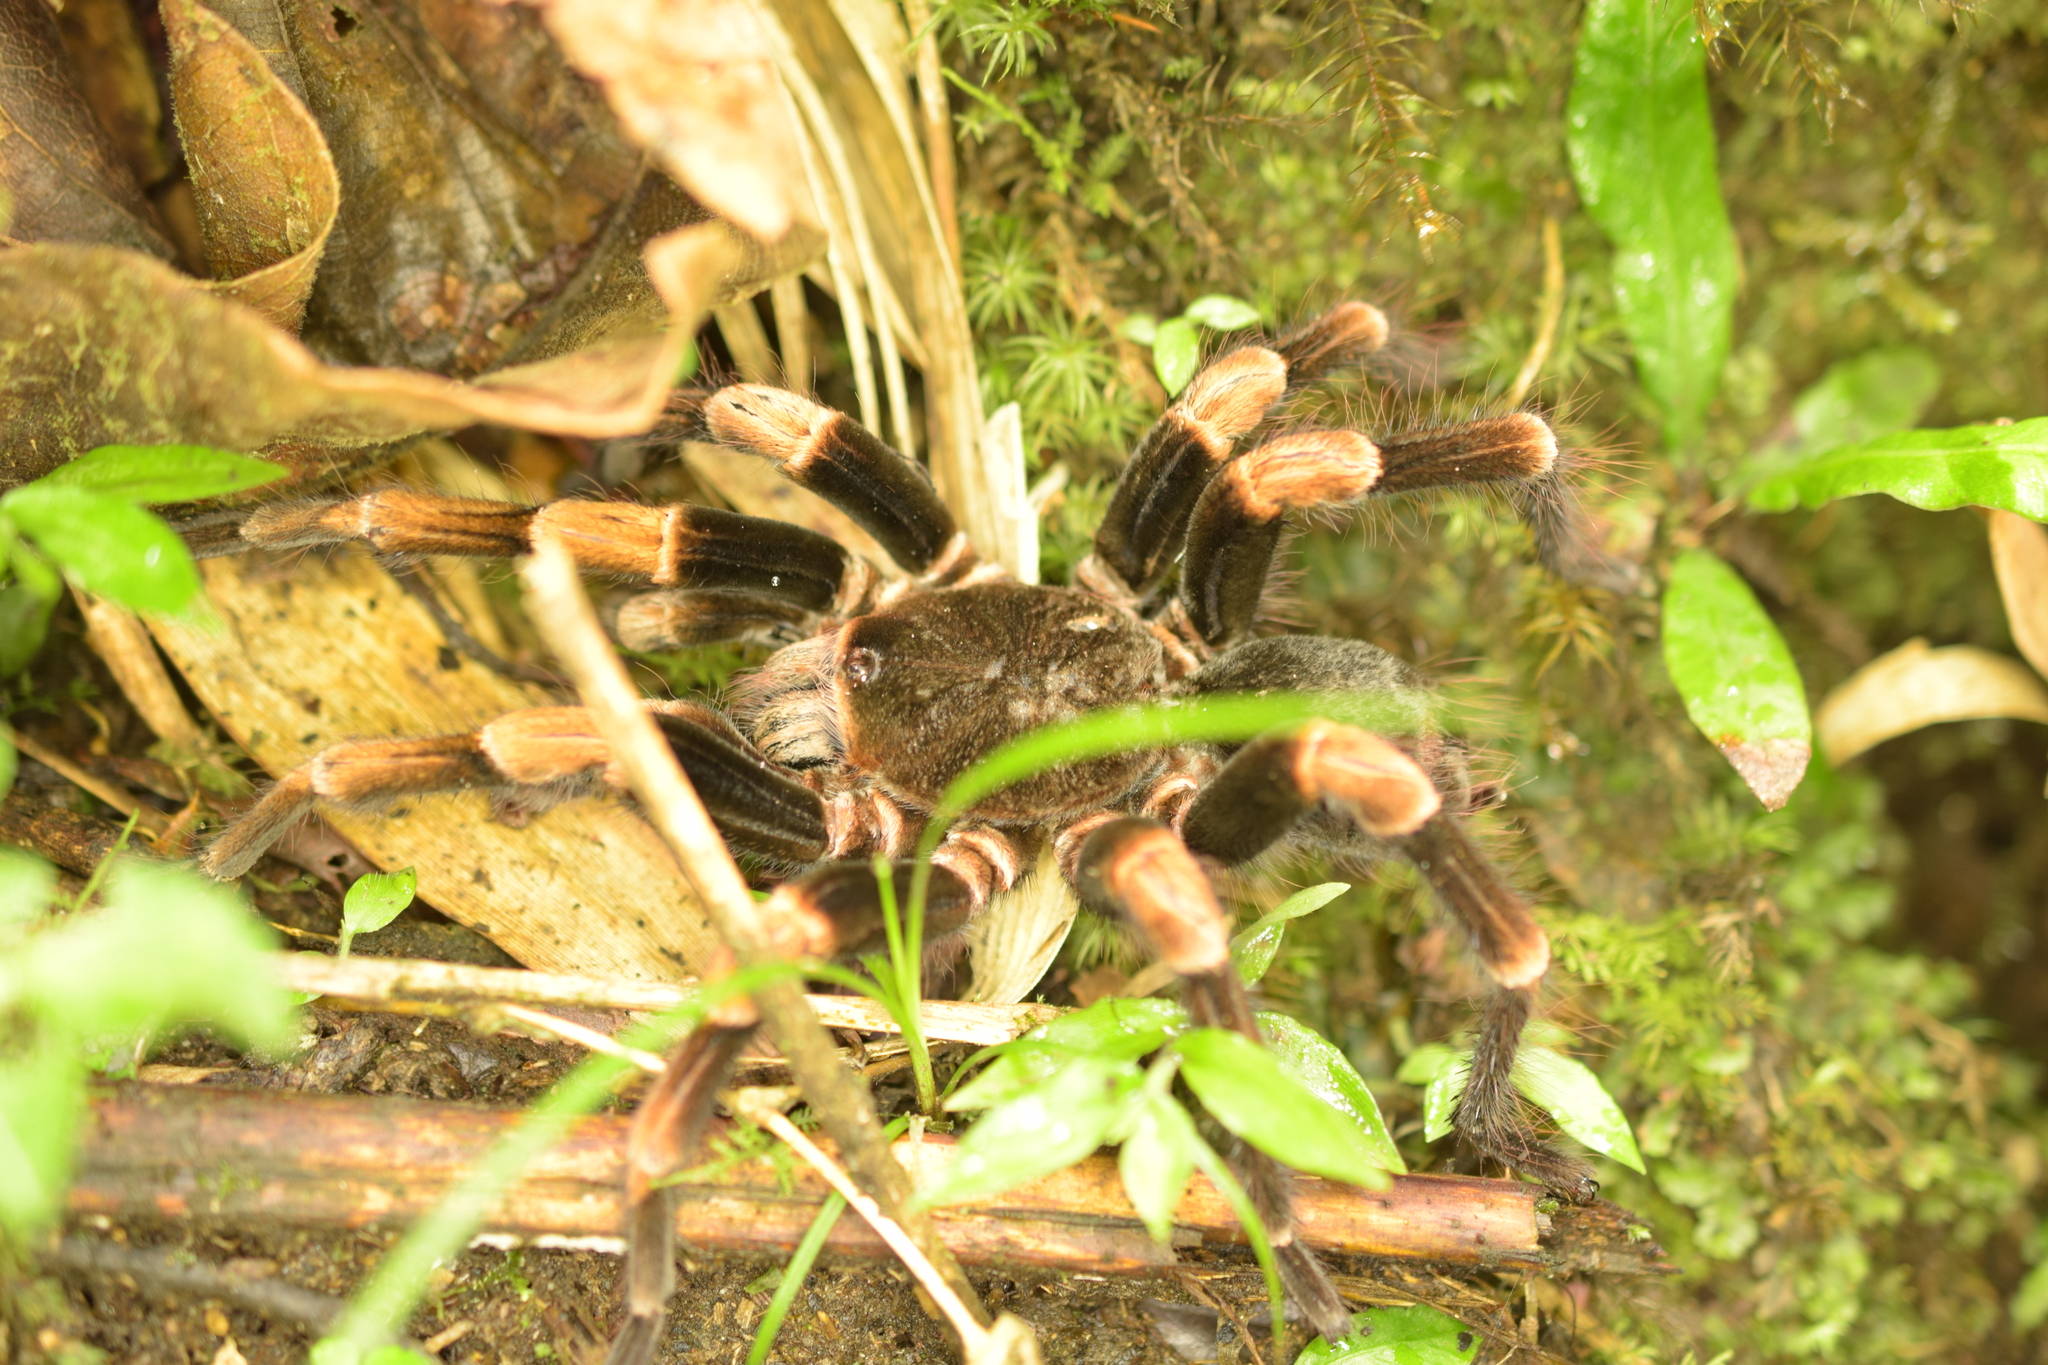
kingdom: Animalia
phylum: Arthropoda
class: Arachnida
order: Araneae
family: Theraphosidae
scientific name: Theraphosidae
